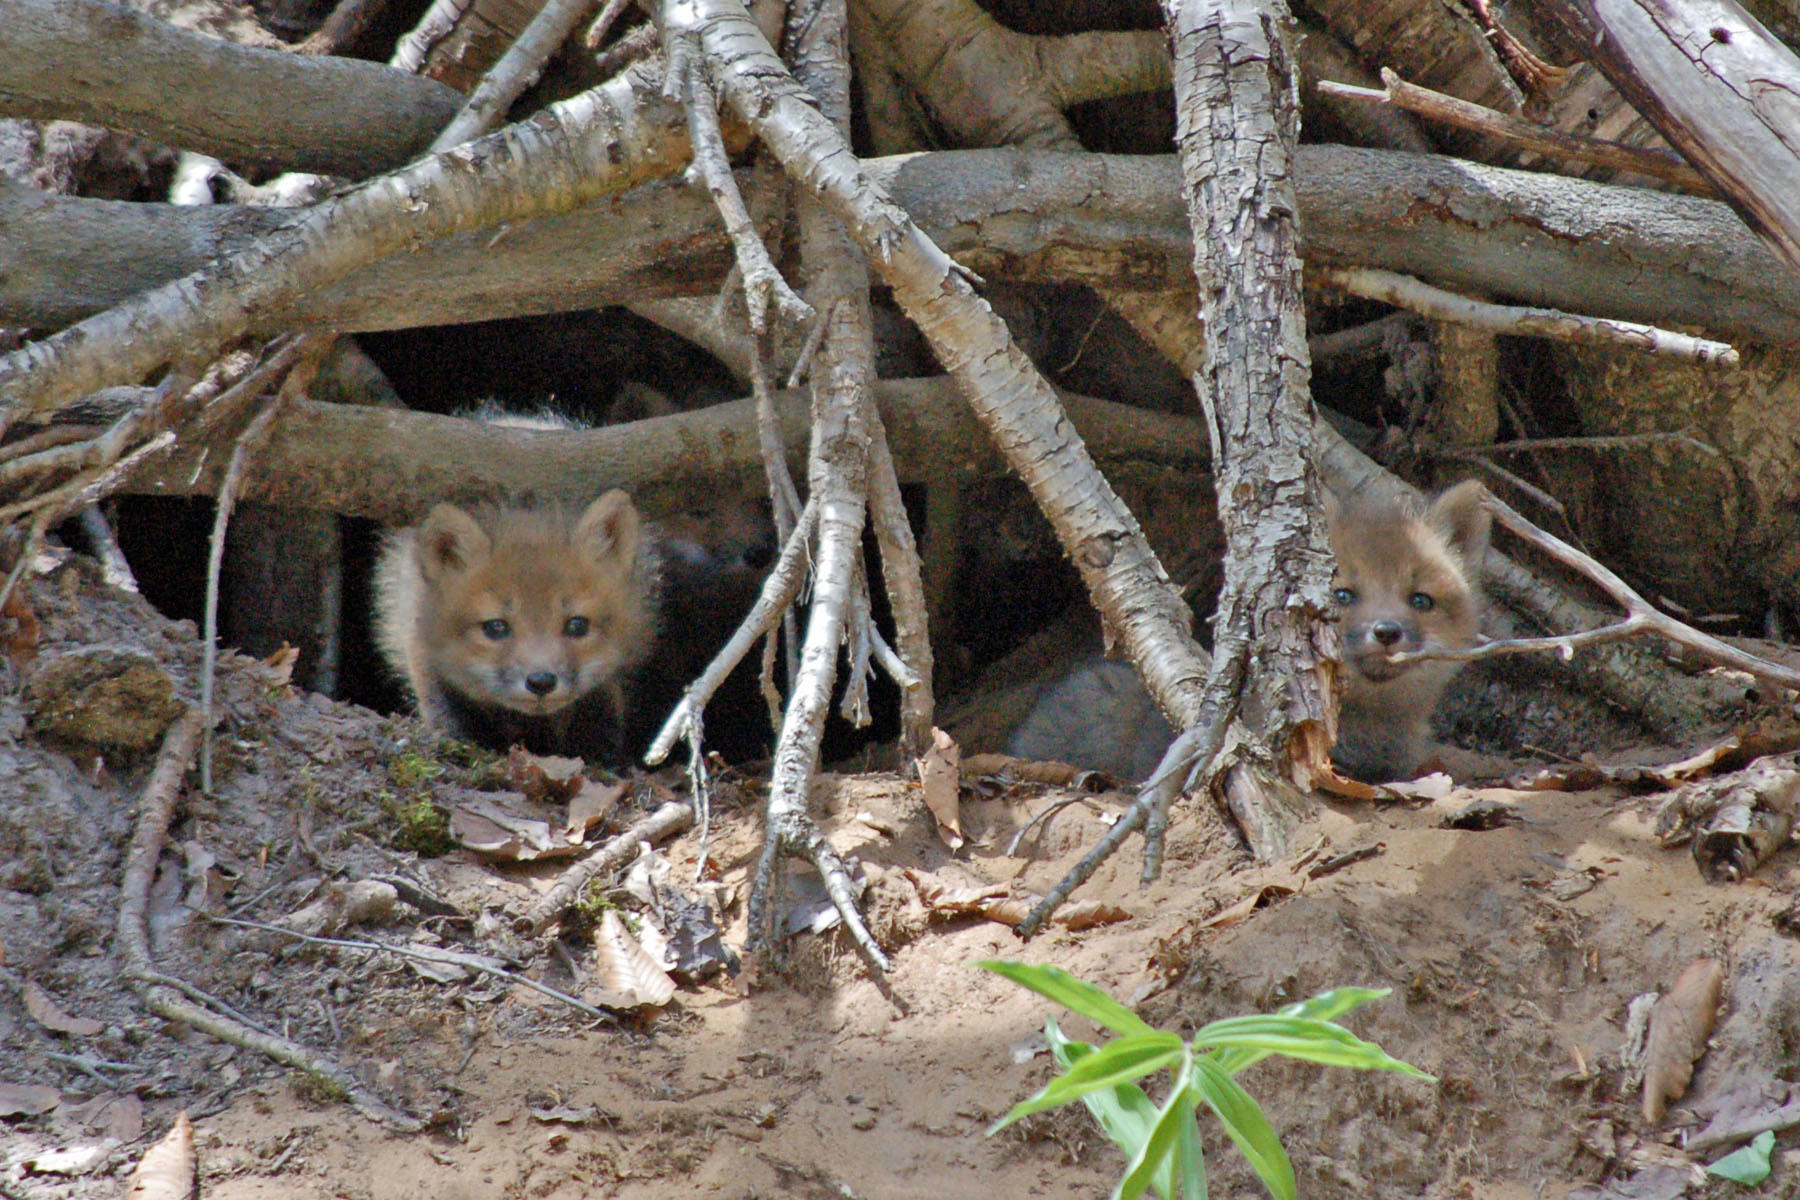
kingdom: Animalia
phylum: Chordata
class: Mammalia
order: Carnivora
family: Canidae
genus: Vulpes
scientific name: Vulpes vulpes
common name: Red fox
